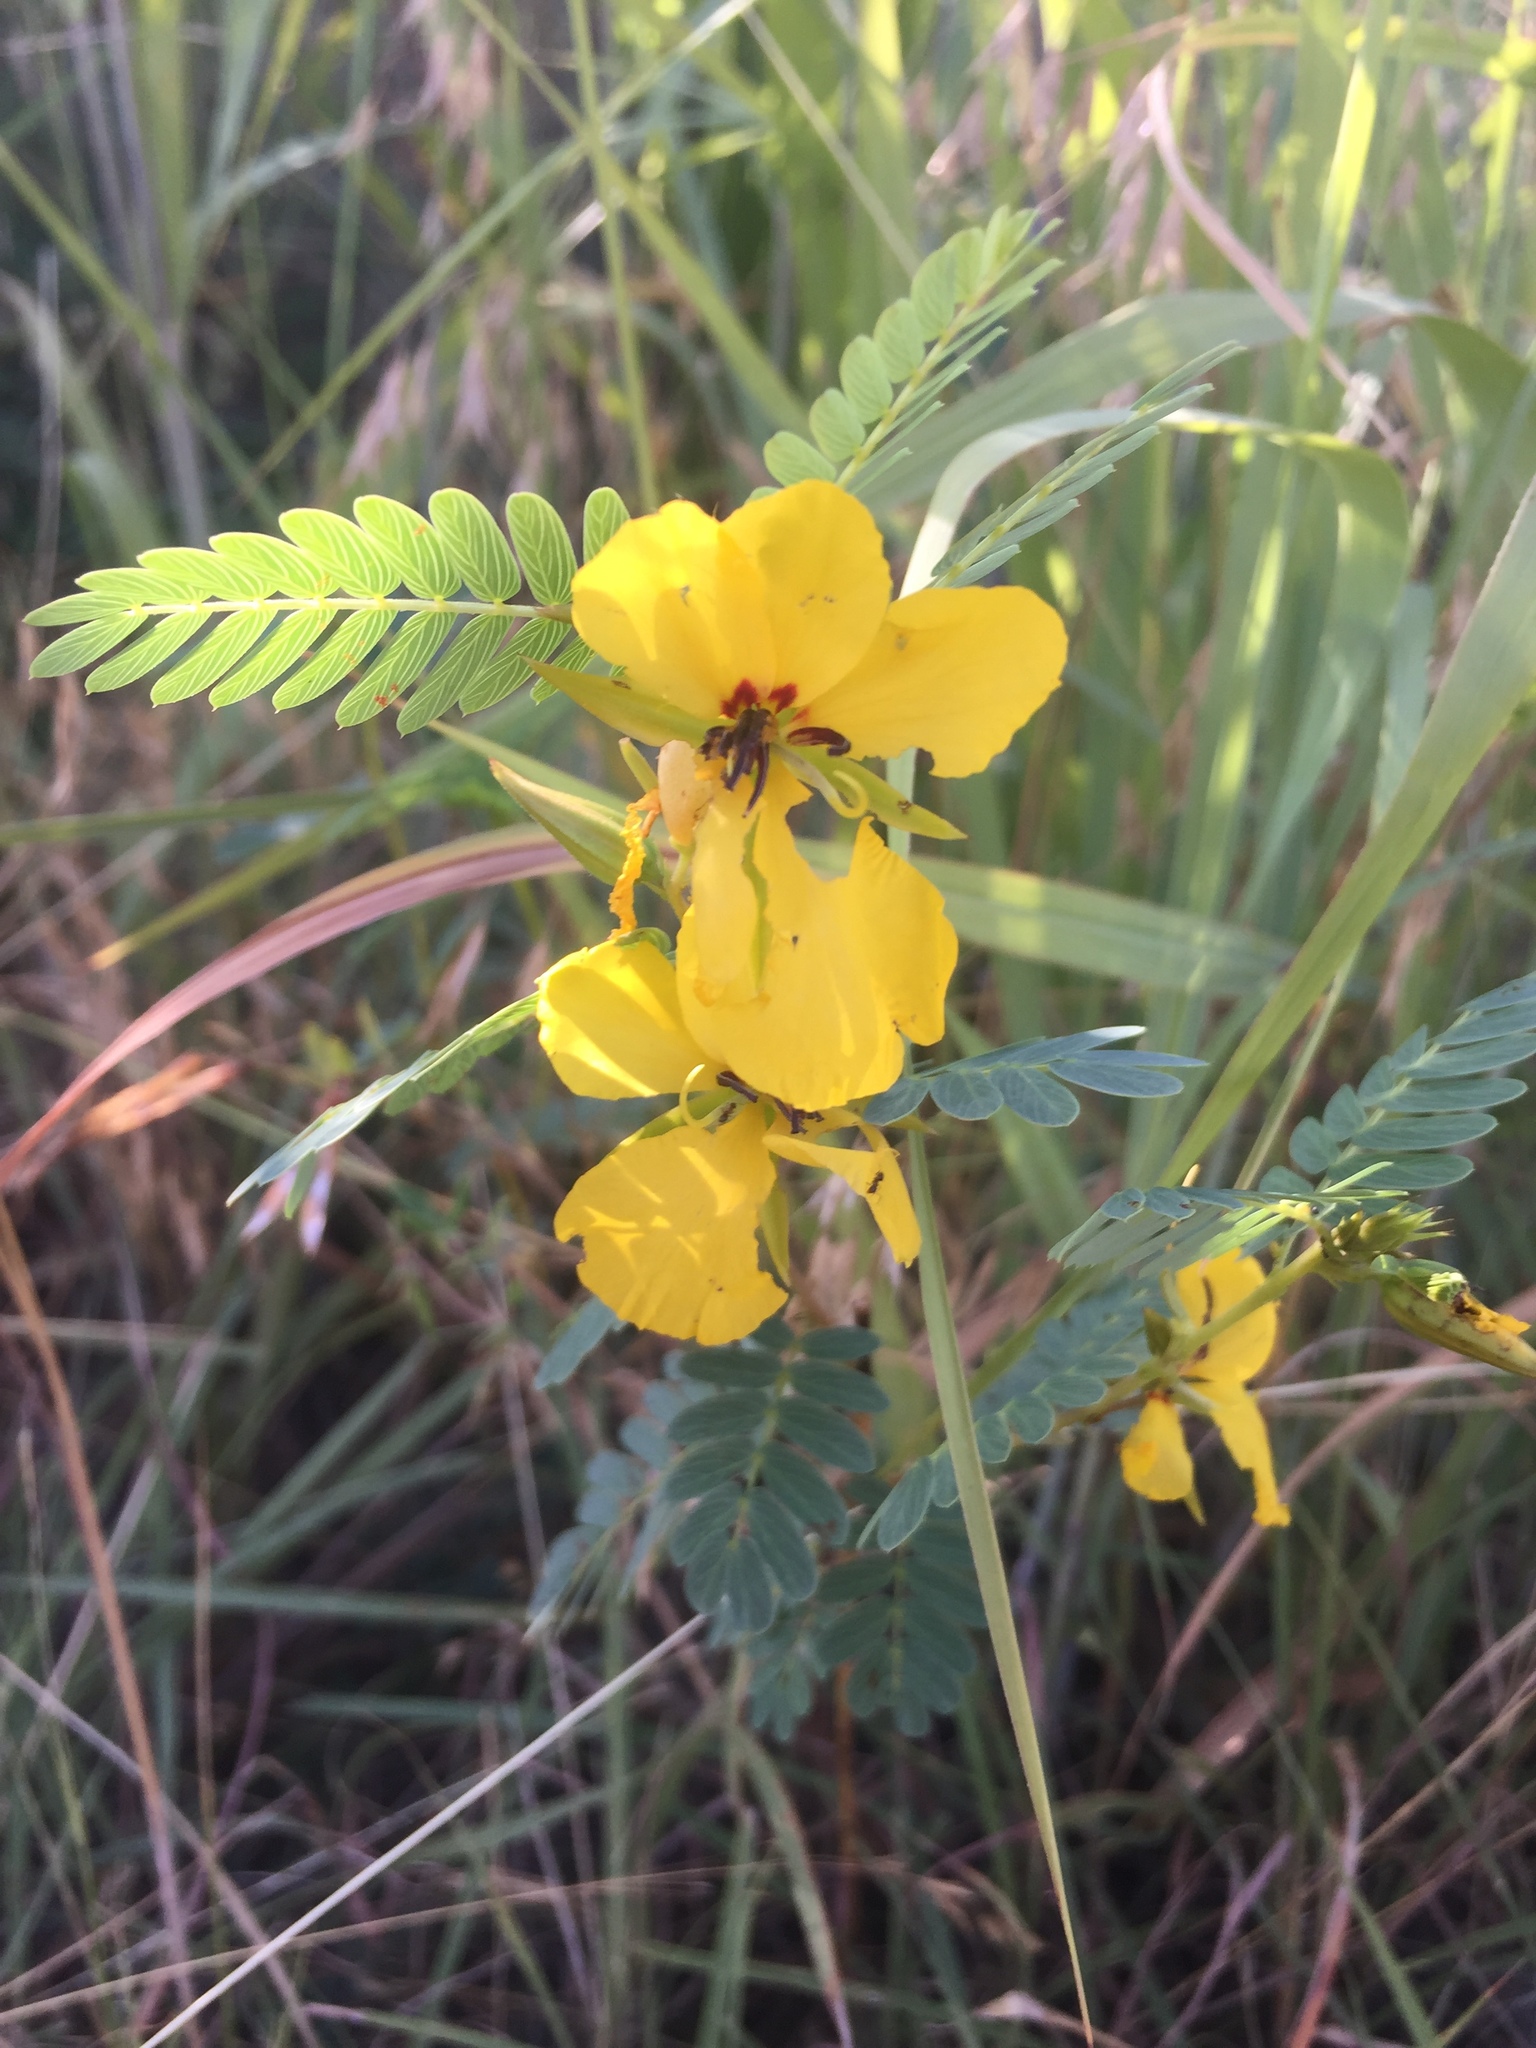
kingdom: Plantae
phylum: Tracheophyta
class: Magnoliopsida
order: Fabales
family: Fabaceae
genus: Chamaecrista
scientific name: Chamaecrista fasciculata
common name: Golden cassia
